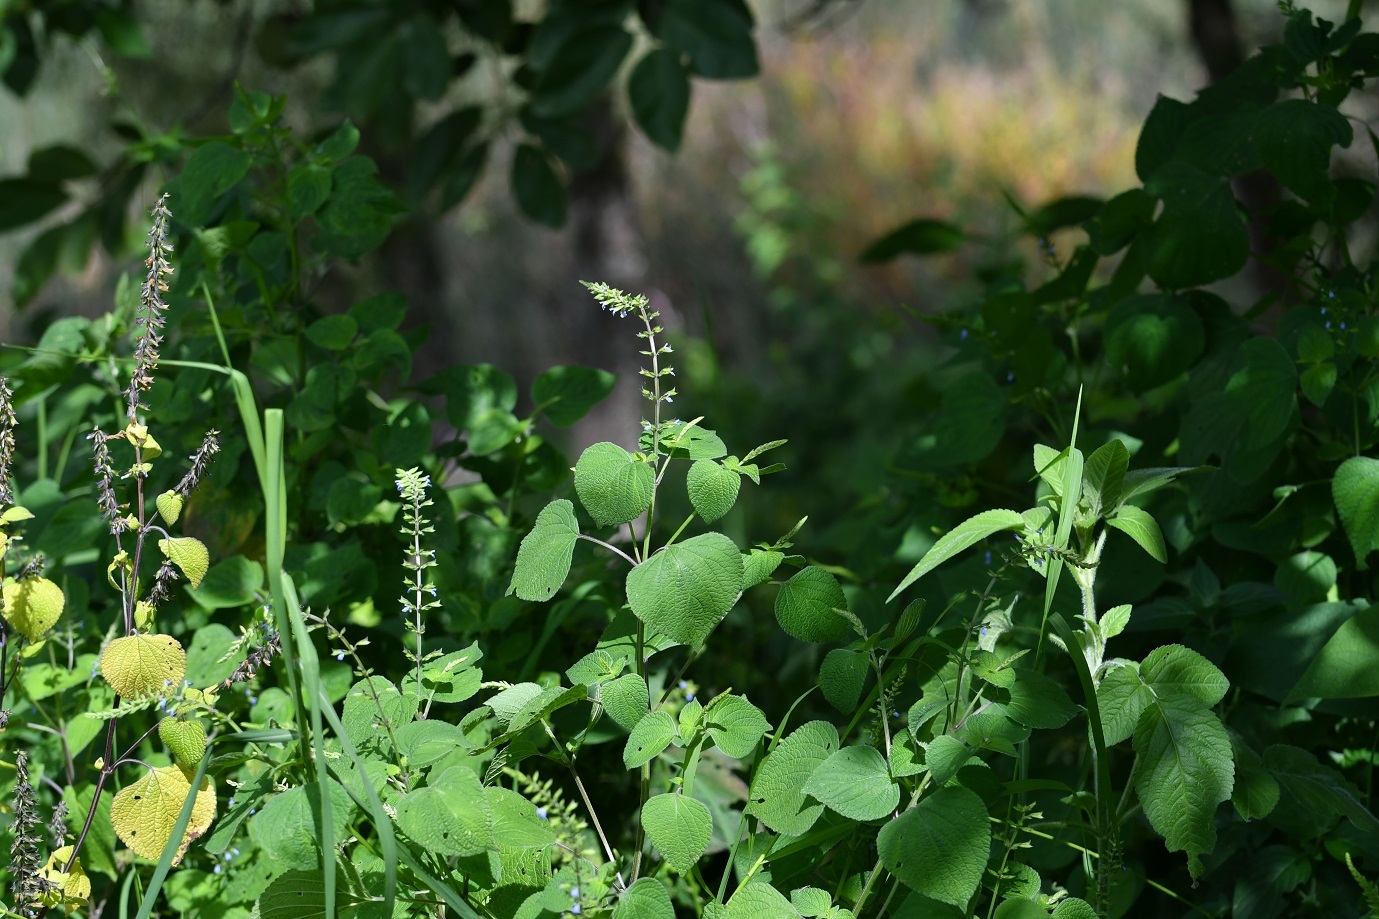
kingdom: Plantae
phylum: Tracheophyta
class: Magnoliopsida
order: Lamiales
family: Lamiaceae
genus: Salvia
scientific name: Salvia tiliifolia
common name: Lindenleaf sage
